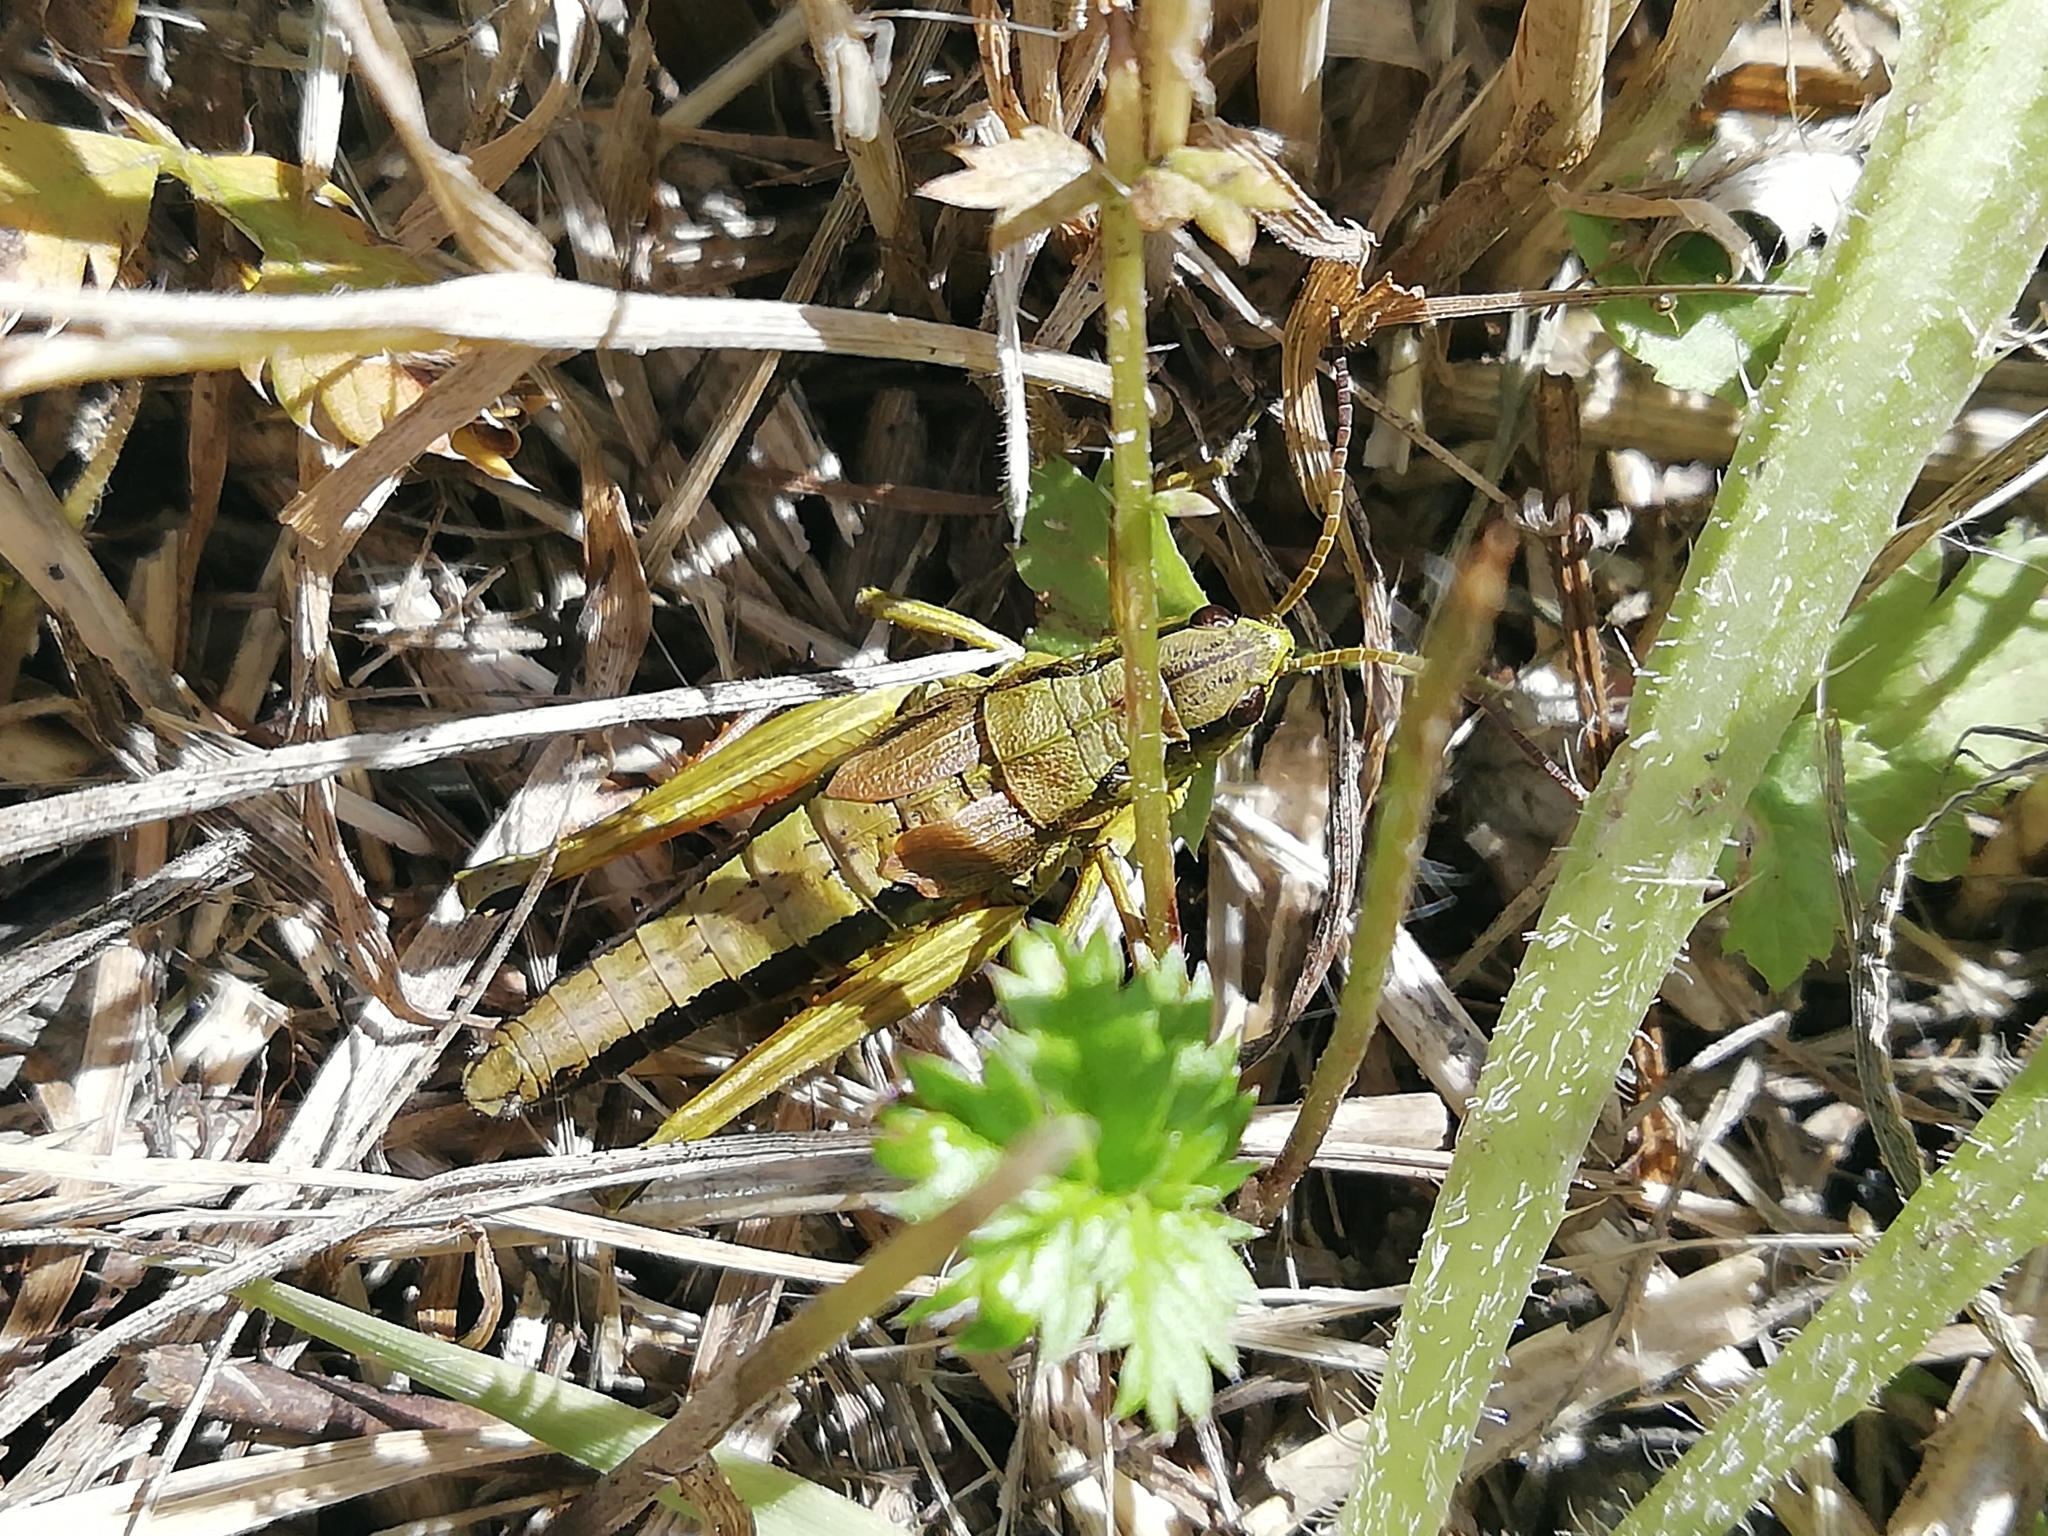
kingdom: Animalia
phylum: Arthropoda
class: Insecta
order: Orthoptera
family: Acrididae
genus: Podismopsis
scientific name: Podismopsis poppiusi
